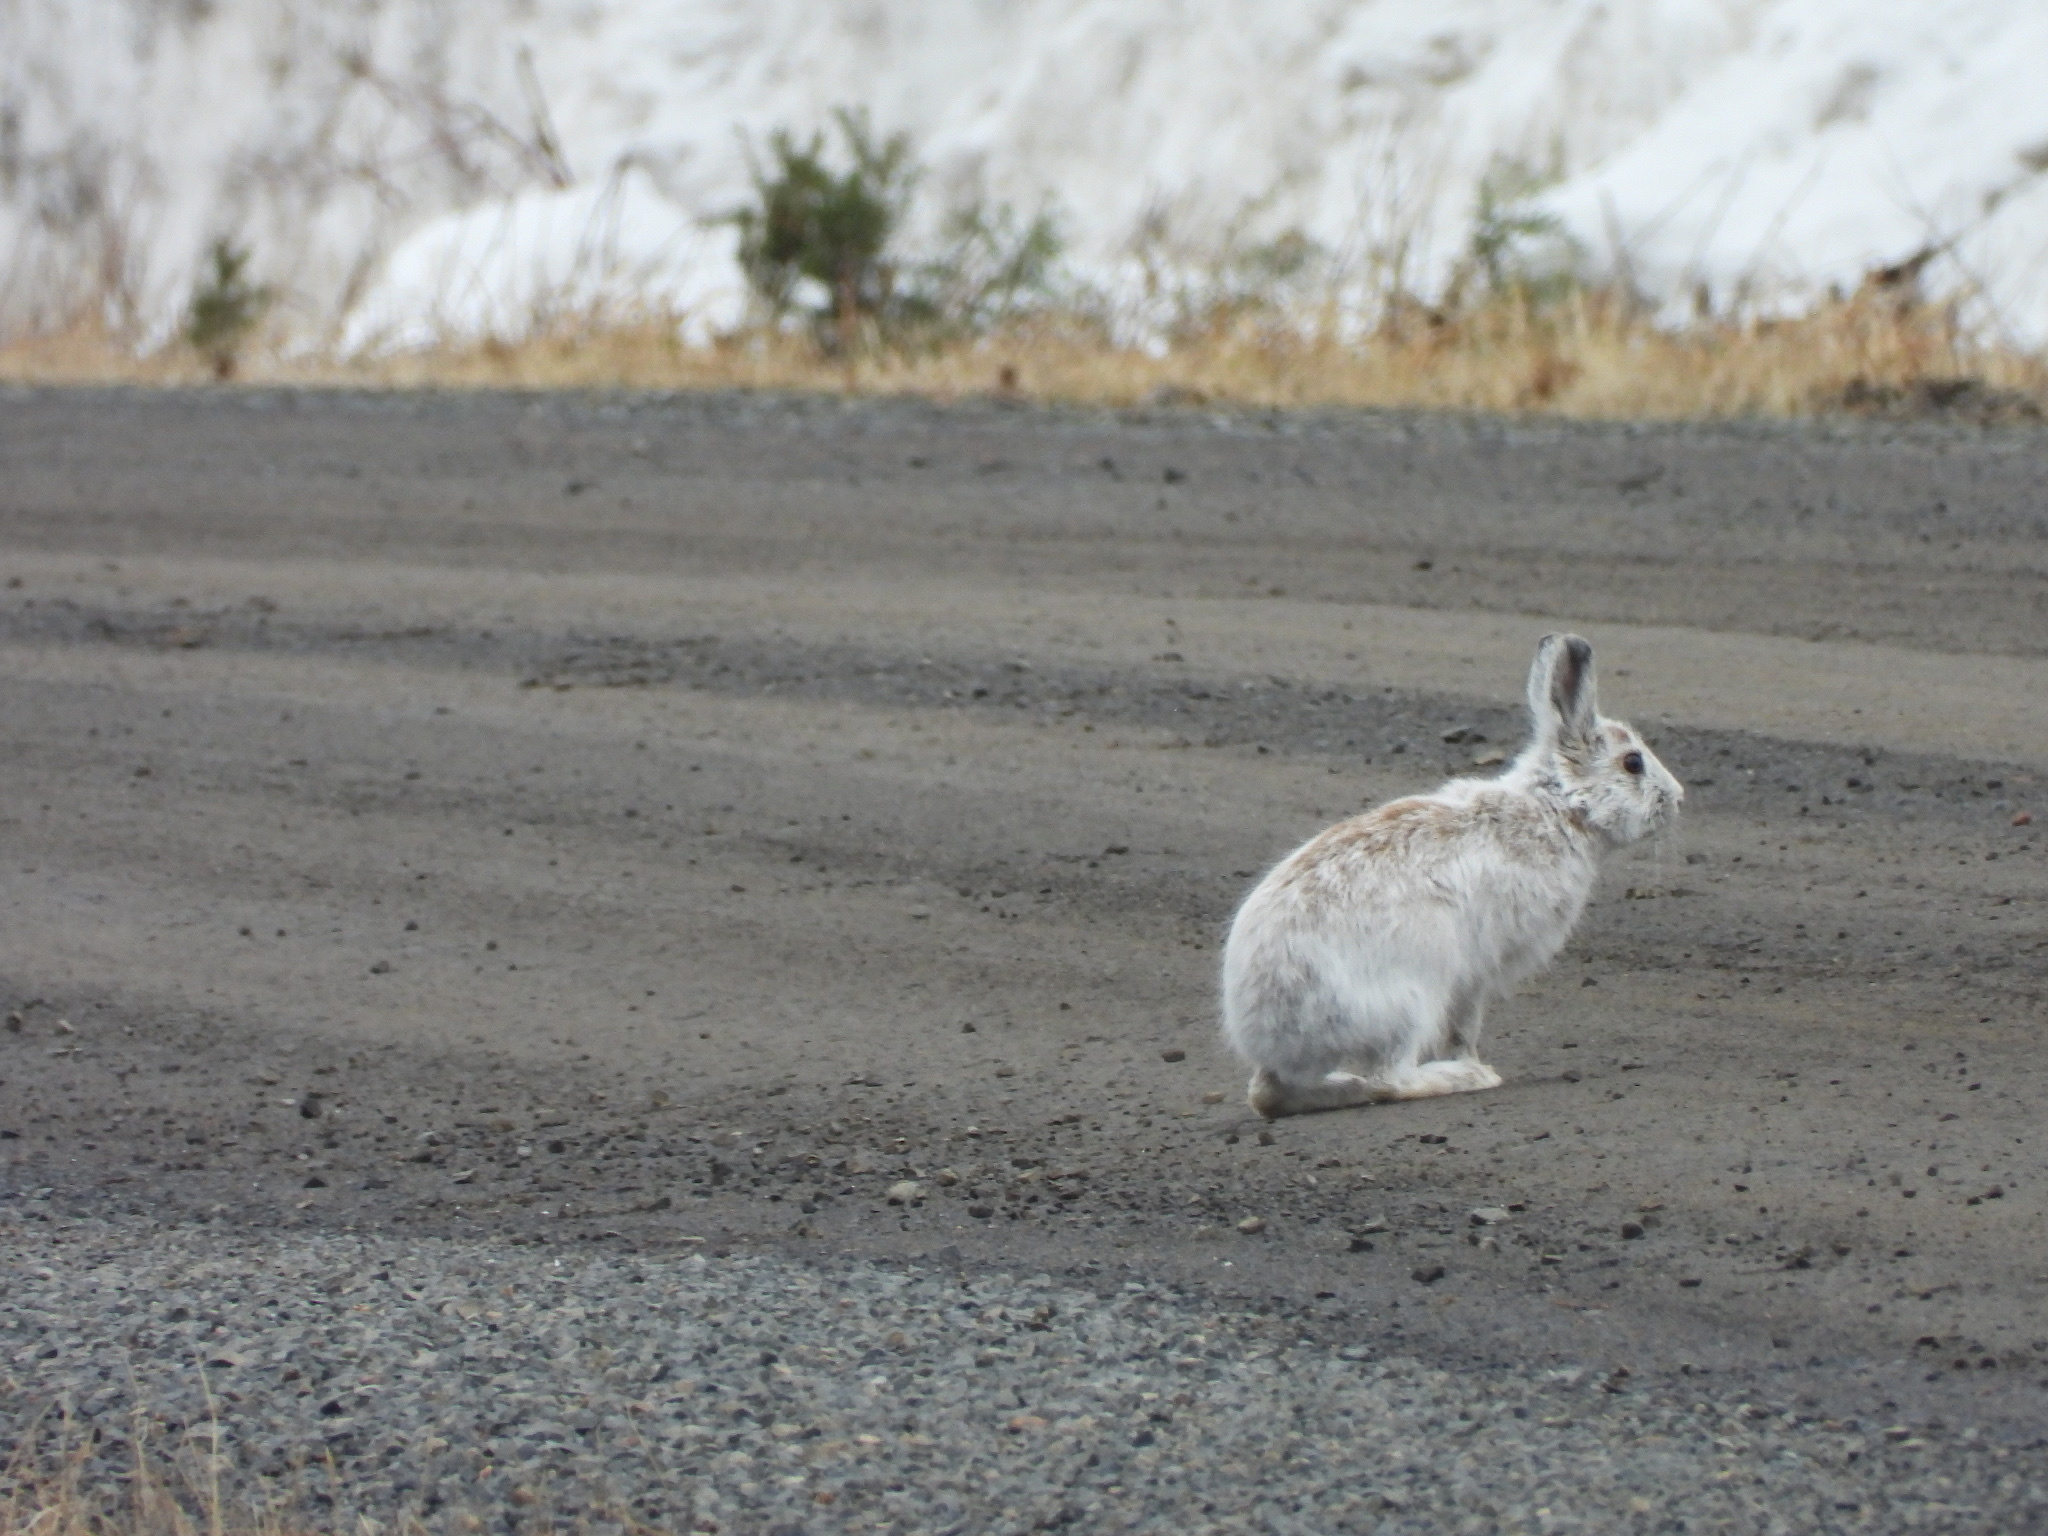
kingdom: Animalia
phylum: Chordata
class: Mammalia
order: Lagomorpha
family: Leporidae
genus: Lepus
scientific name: Lepus americanus
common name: Snowshoe hare
